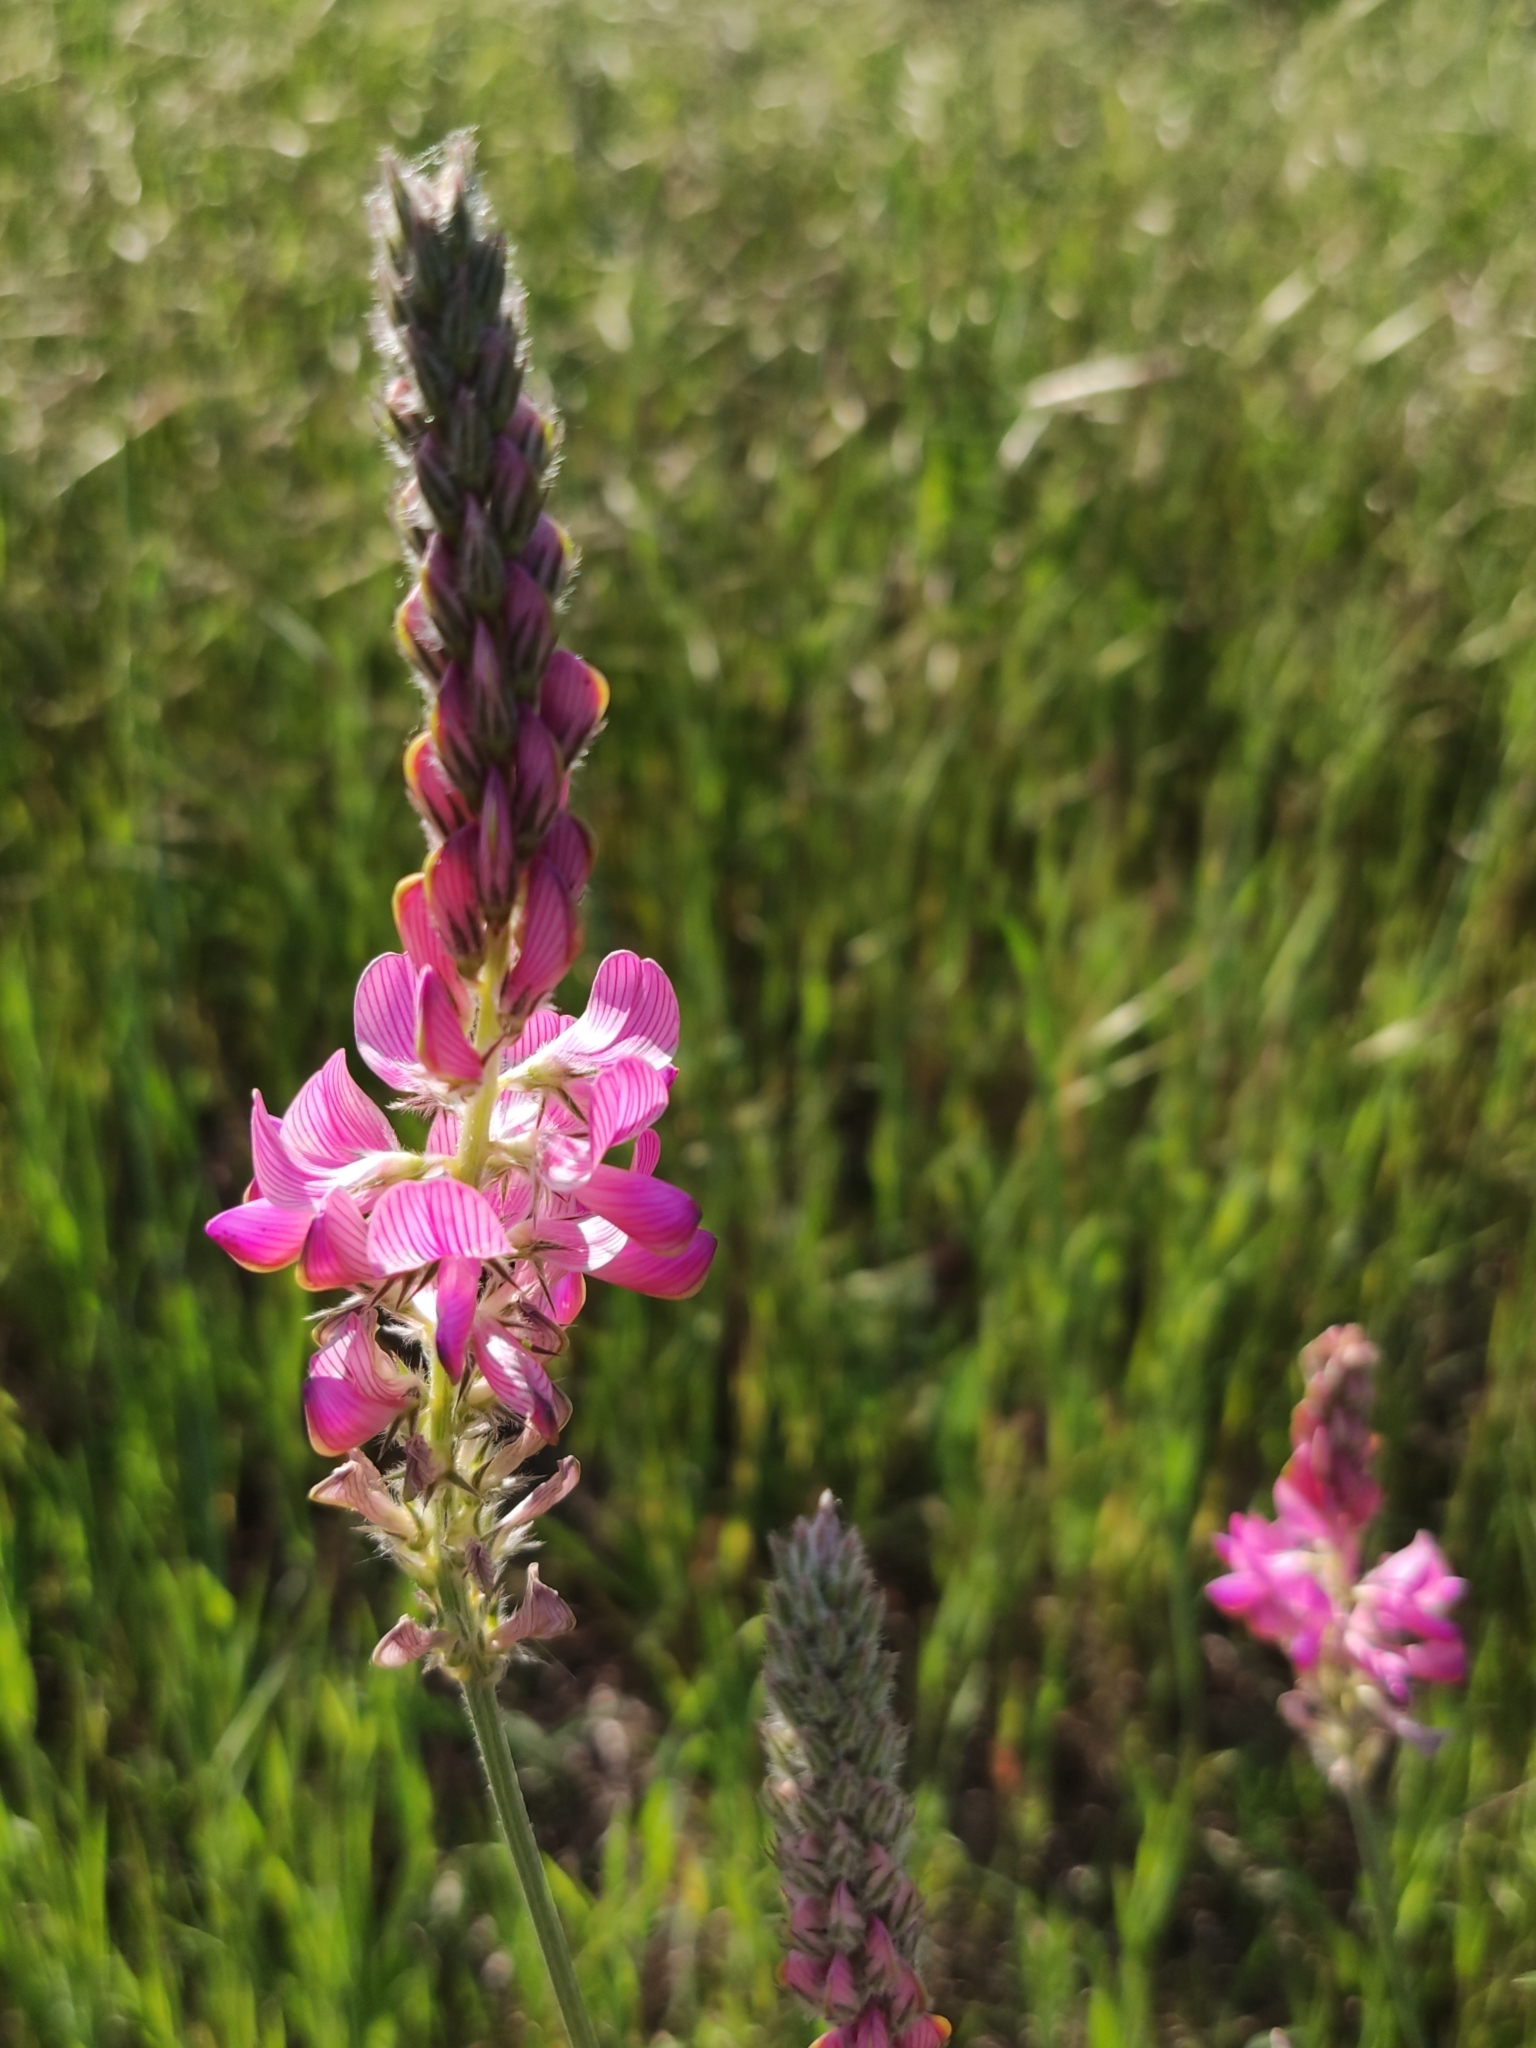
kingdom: Plantae
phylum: Tracheophyta
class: Magnoliopsida
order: Fabales
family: Fabaceae
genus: Onobrychis
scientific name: Onobrychis viciifolia
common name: Sainfoin
